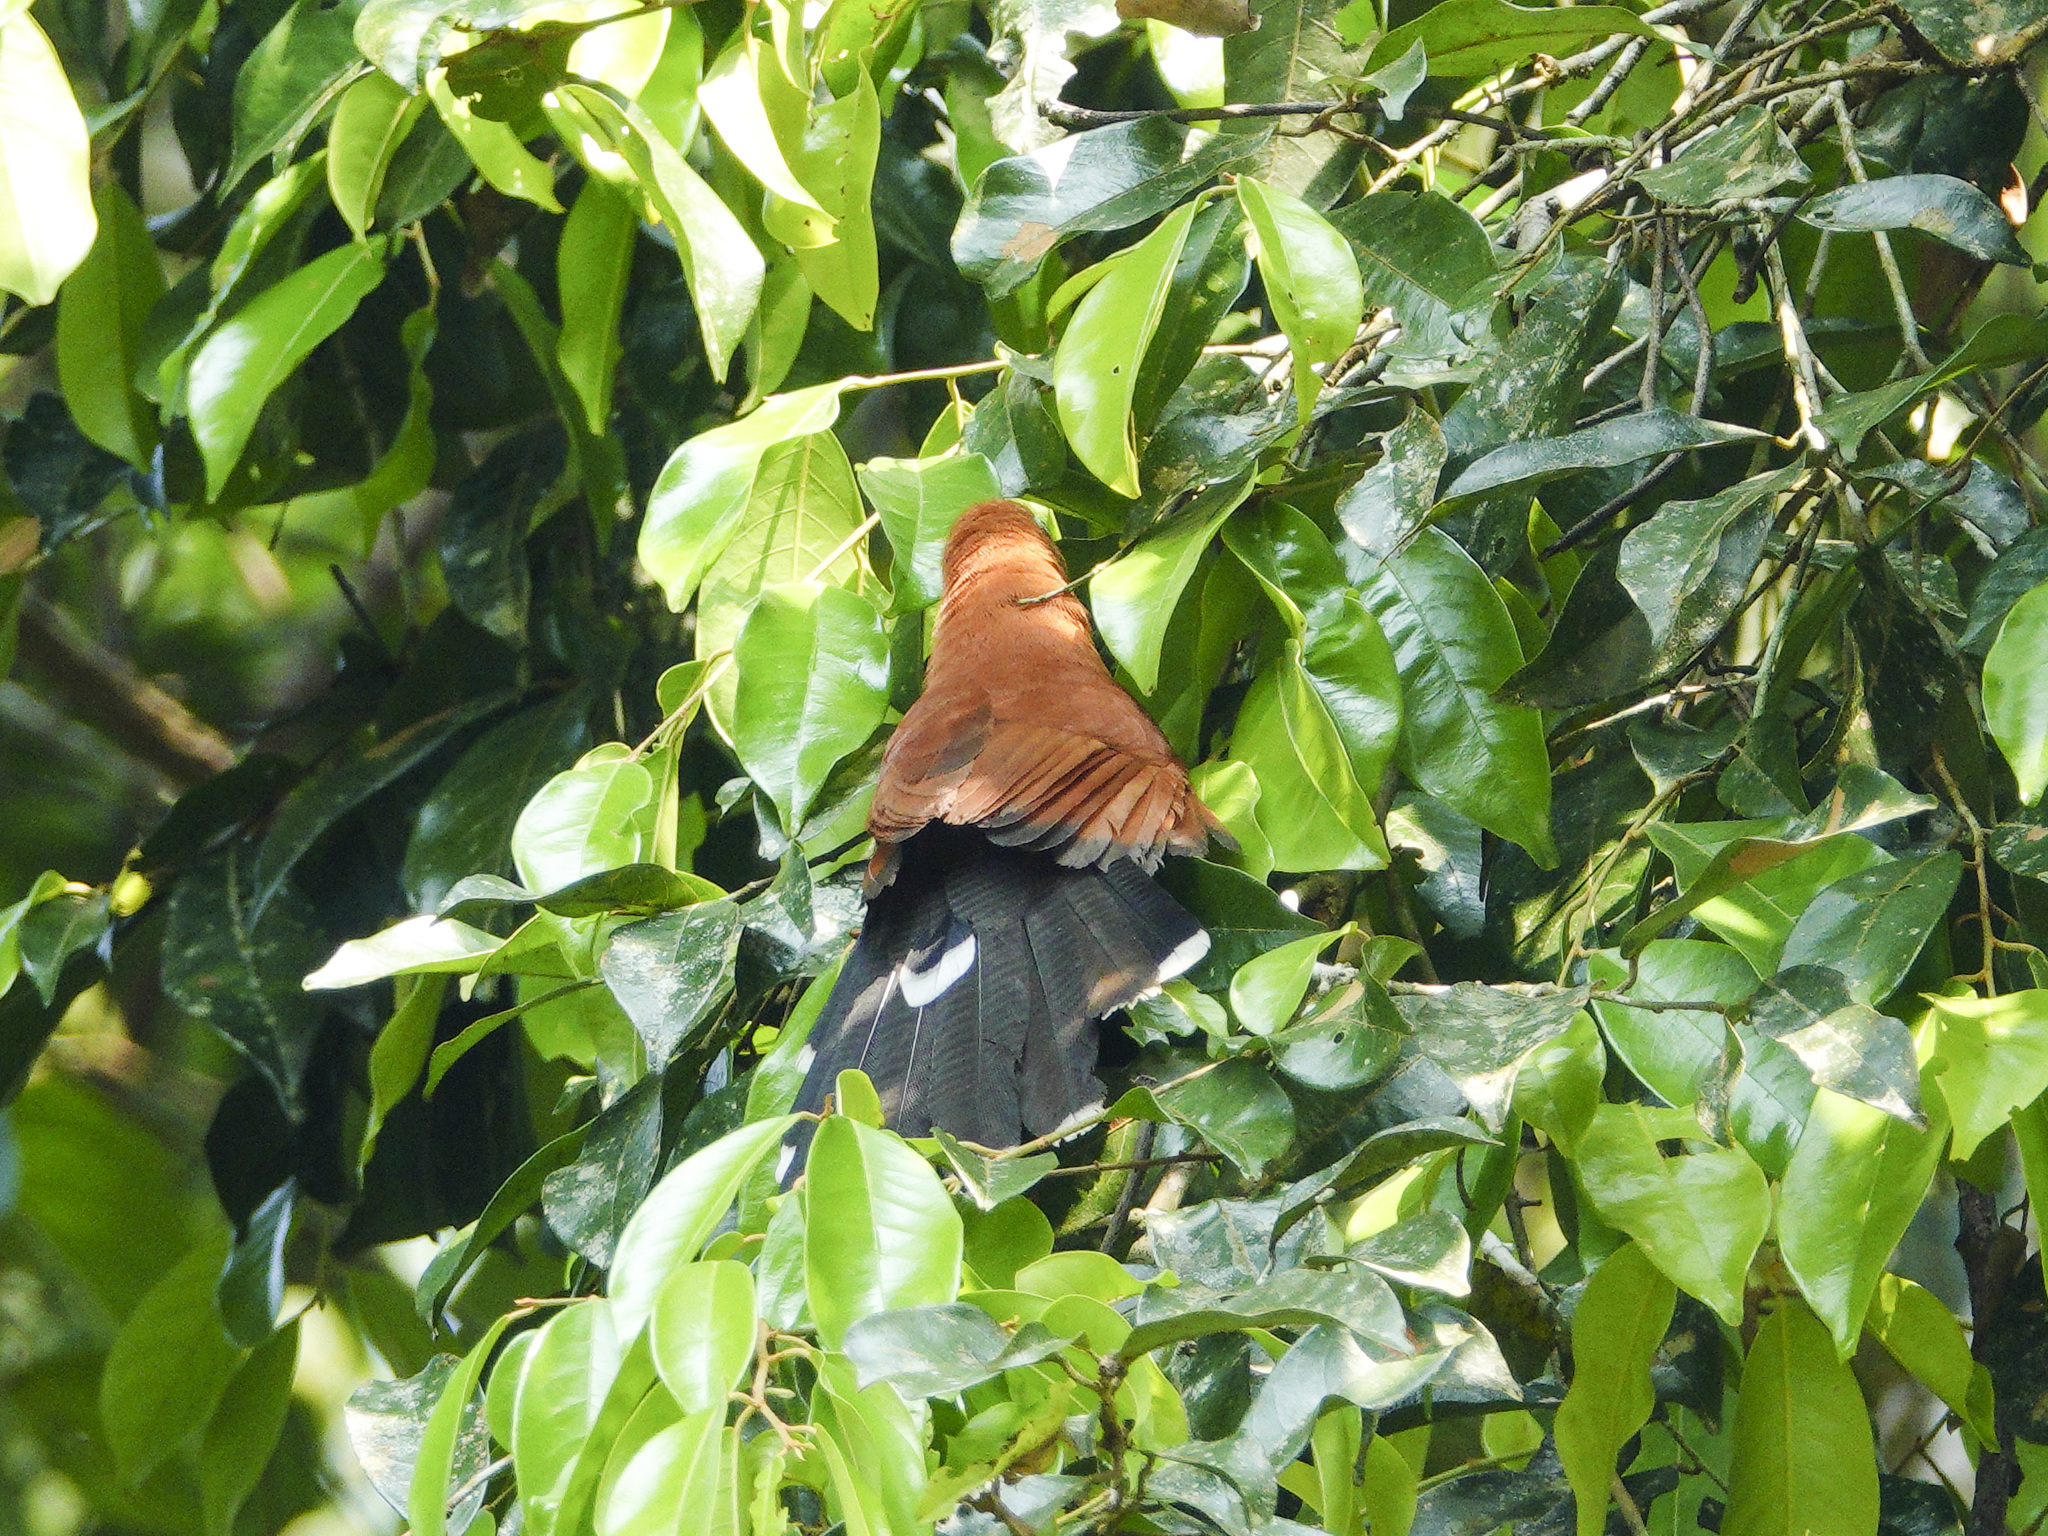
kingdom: Animalia
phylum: Chordata
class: Aves
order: Cuculiformes
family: Cuculidae
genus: Rhinortha
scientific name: Rhinortha chlorophaea
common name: Raffles's malkoha
